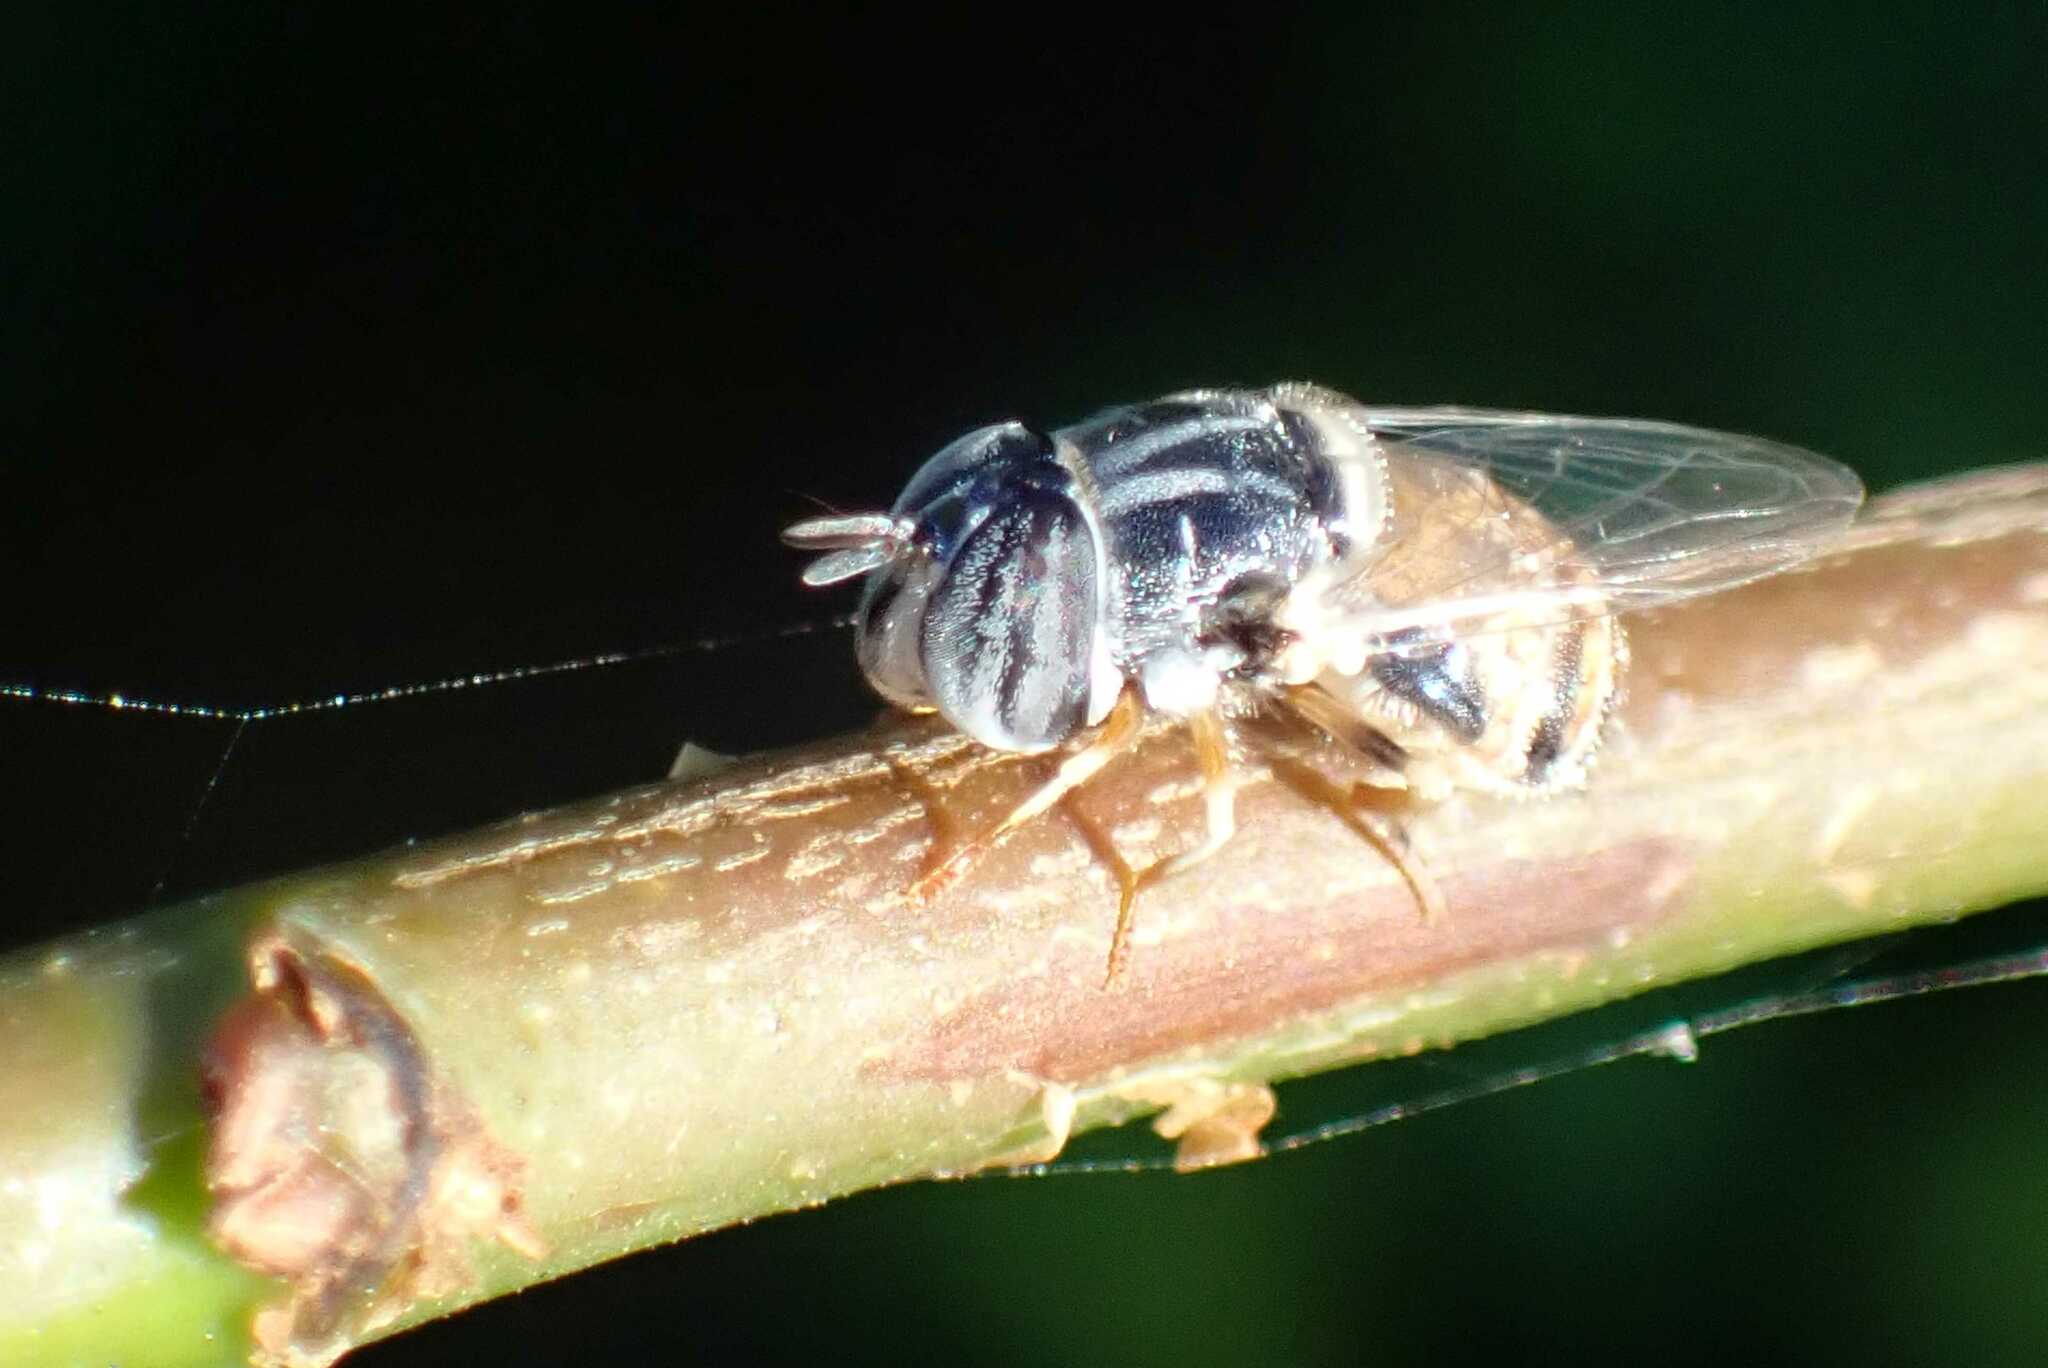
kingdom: Animalia
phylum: Arthropoda
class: Insecta
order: Diptera
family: Syrphidae
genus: Paragus
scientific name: Paragus azureus
